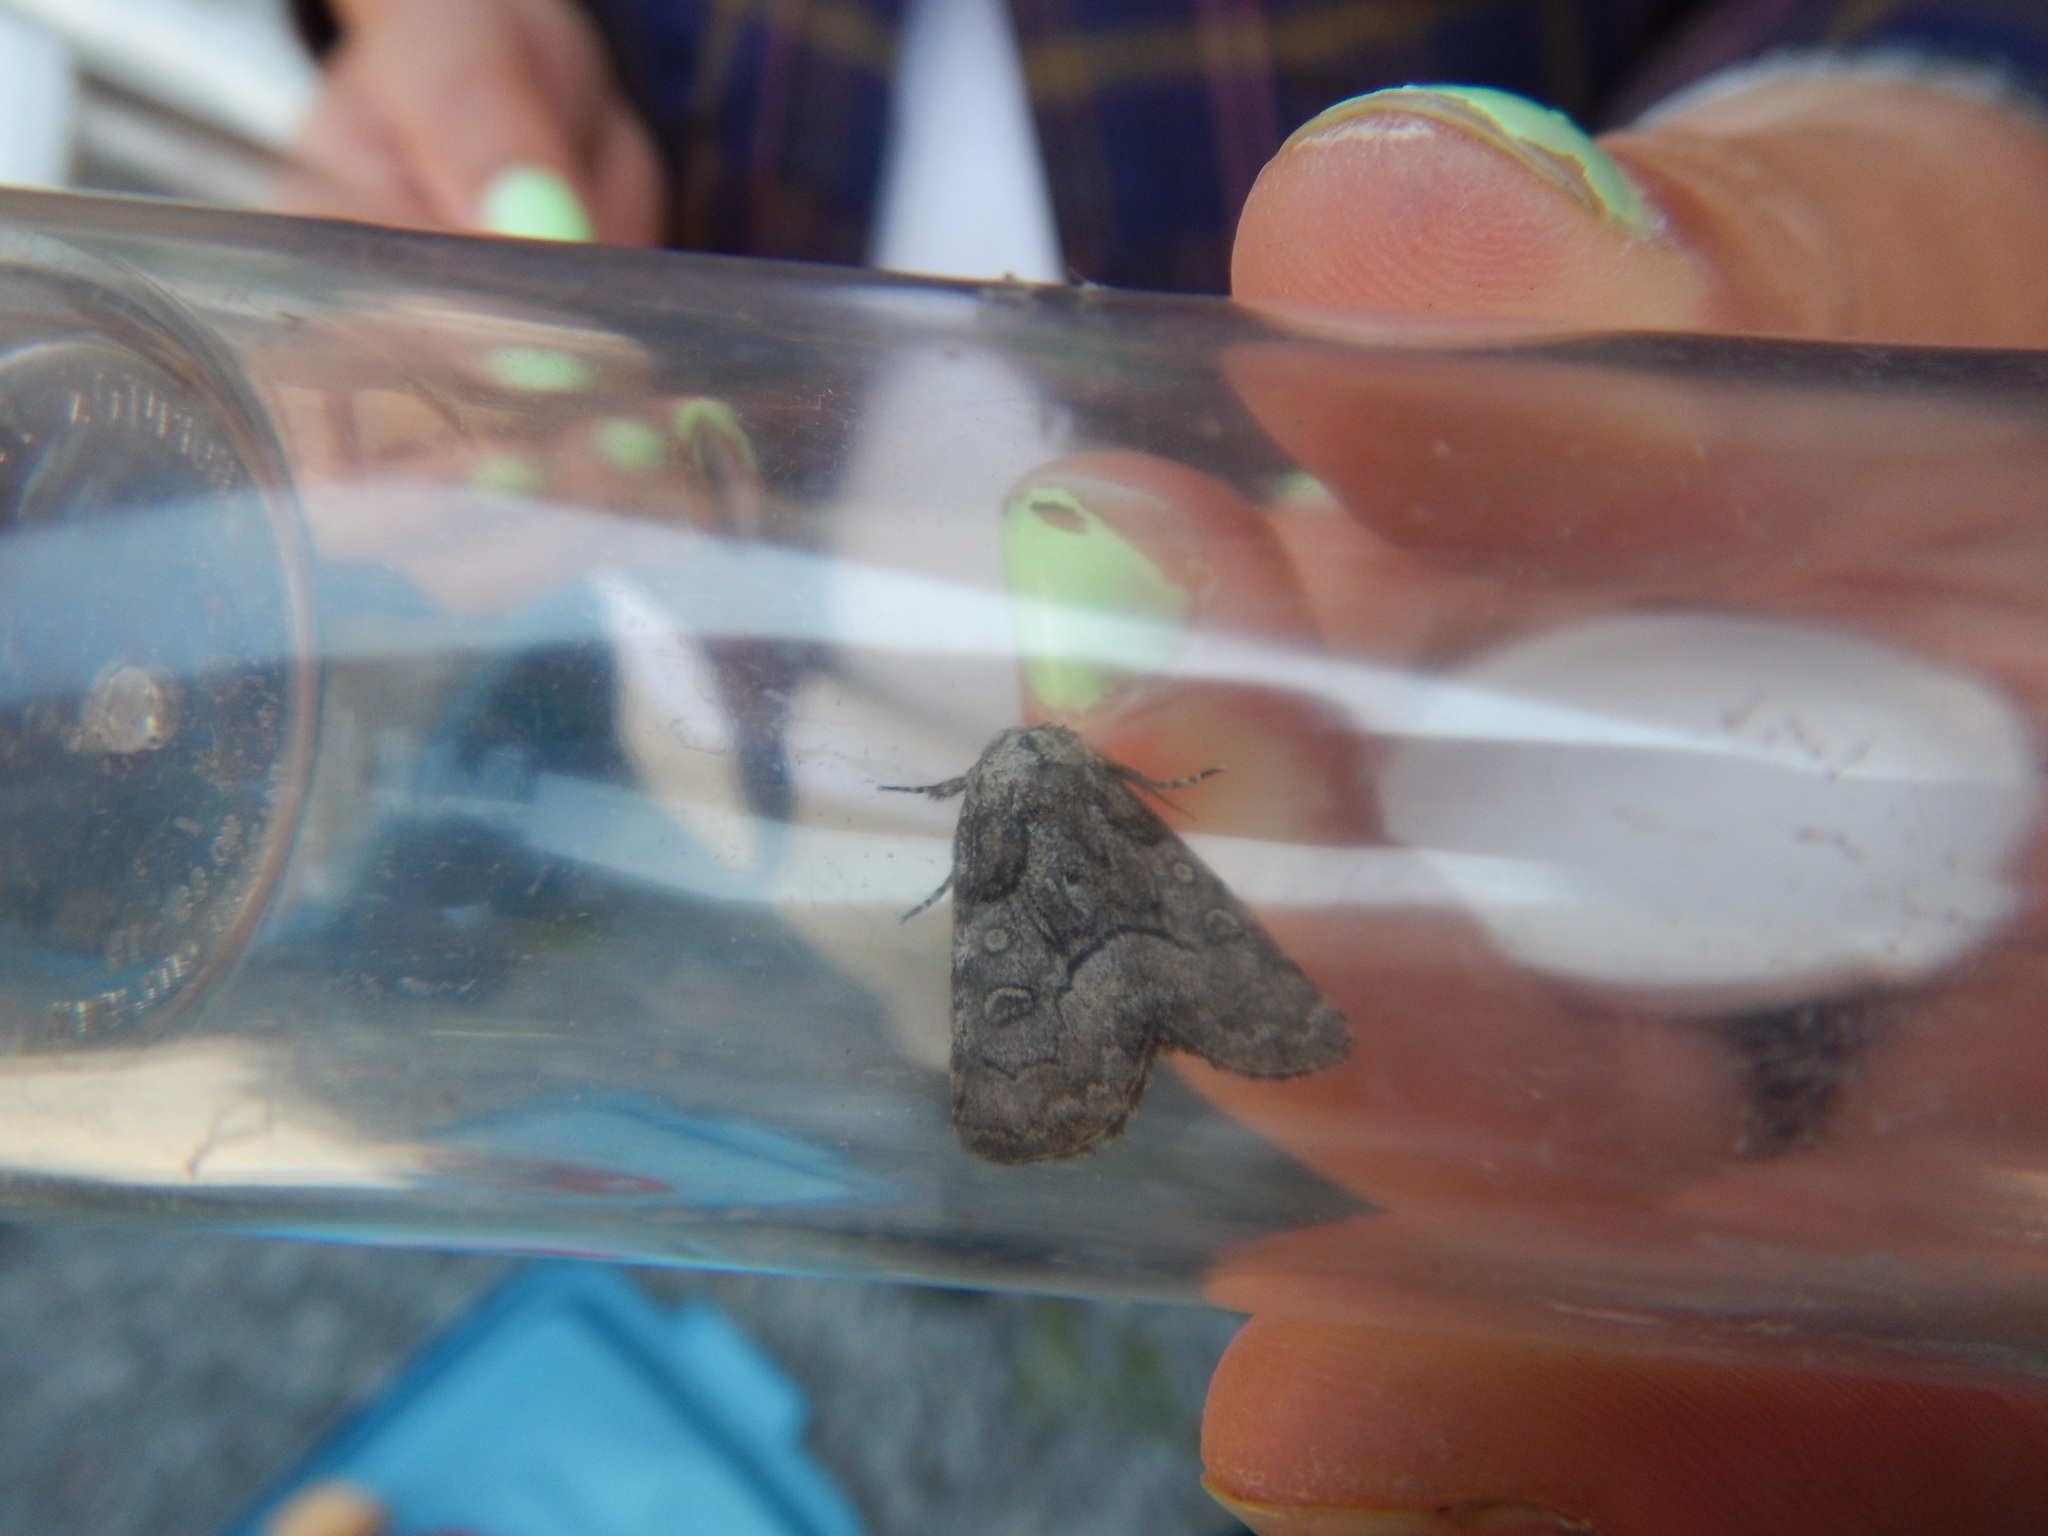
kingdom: Animalia
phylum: Arthropoda
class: Insecta
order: Lepidoptera
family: Noctuidae
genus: Raphia
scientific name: Raphia frater
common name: Brother
